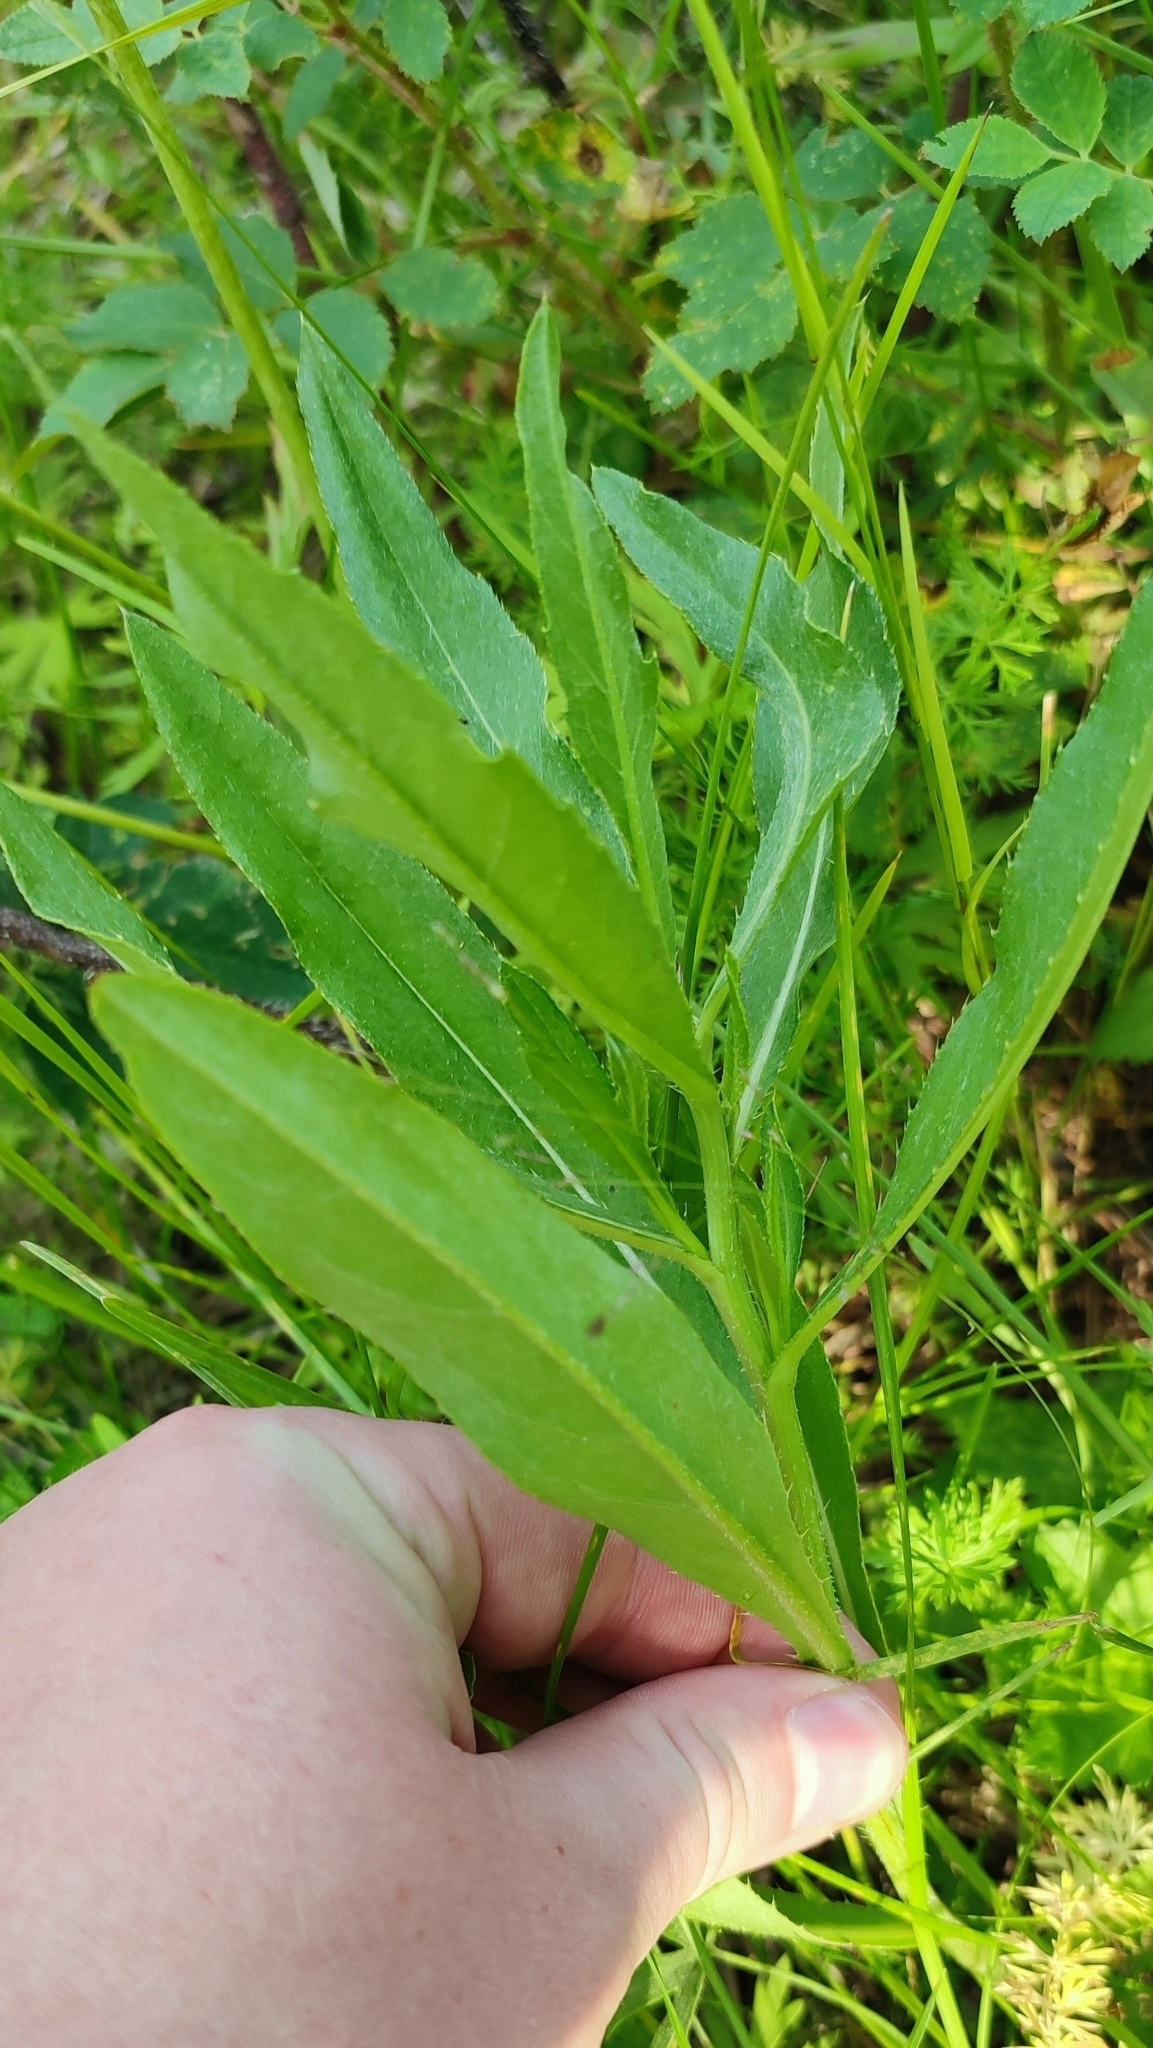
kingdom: Plantae
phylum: Tracheophyta
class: Magnoliopsida
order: Asterales
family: Asteraceae
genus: Cirsium
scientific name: Cirsium arvense
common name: Creeping thistle
